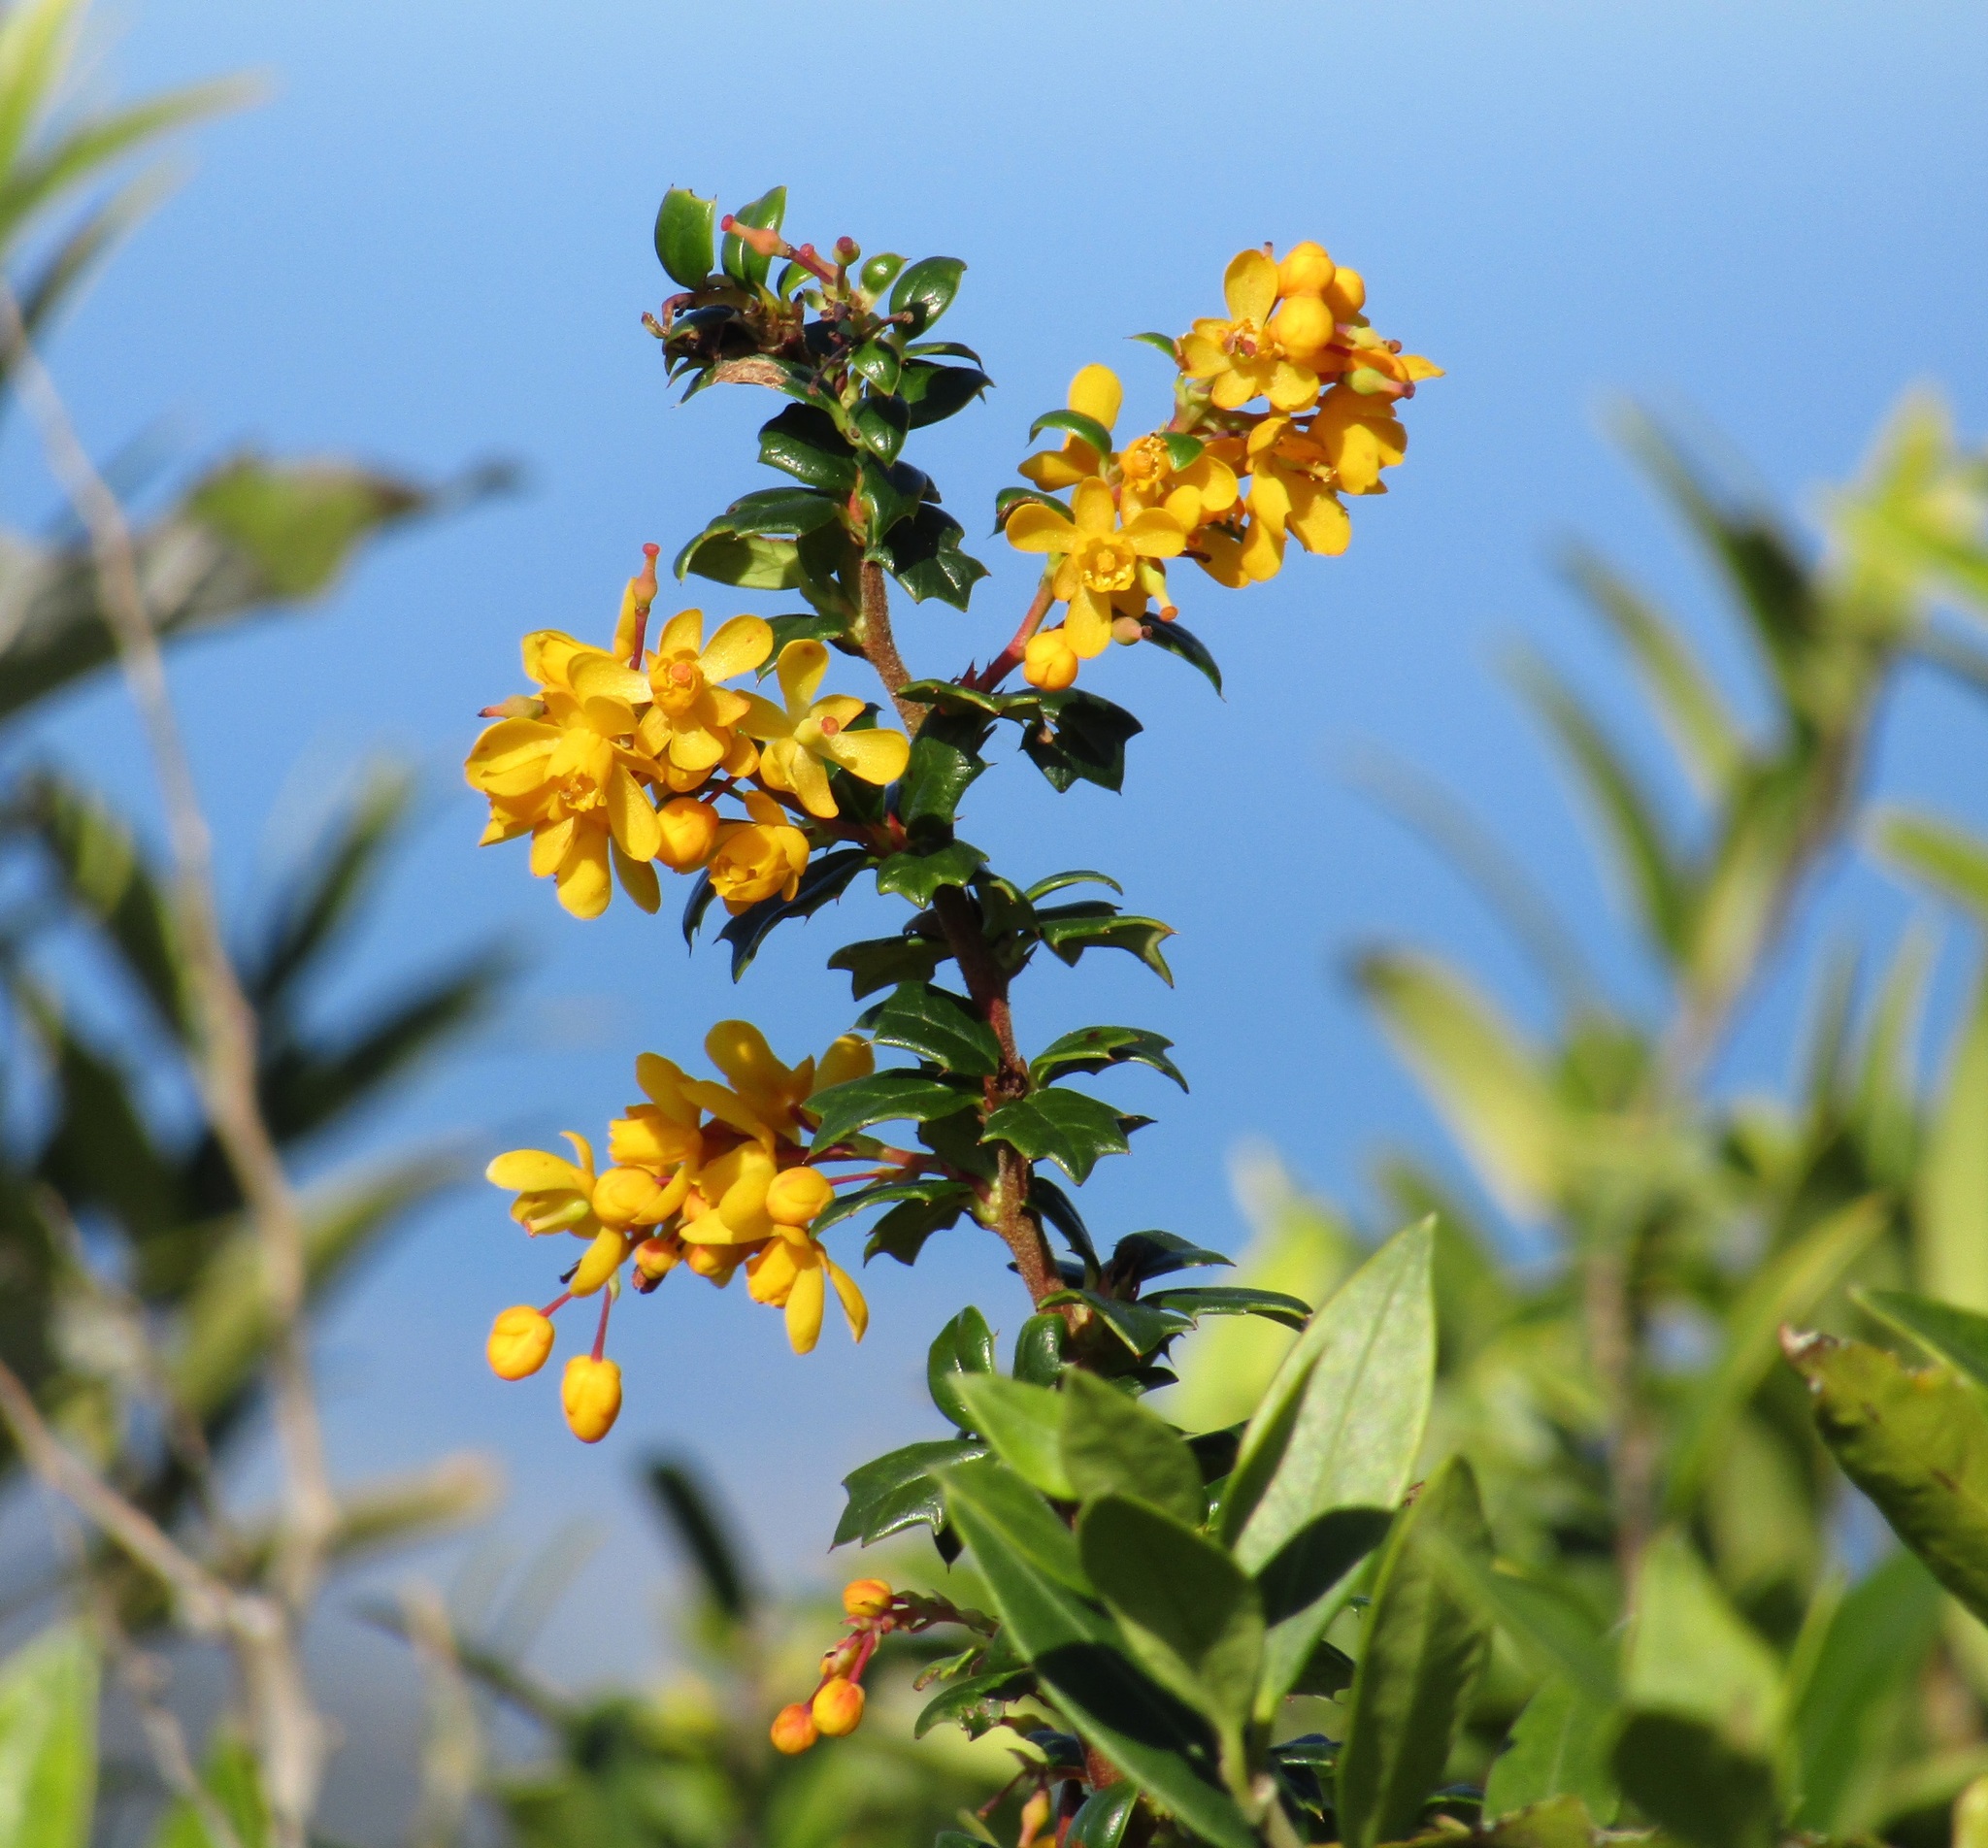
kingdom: Plantae
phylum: Tracheophyta
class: Magnoliopsida
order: Ranunculales
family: Berberidaceae
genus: Berberis
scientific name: Berberis darwinii
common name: Darwin's barberry
